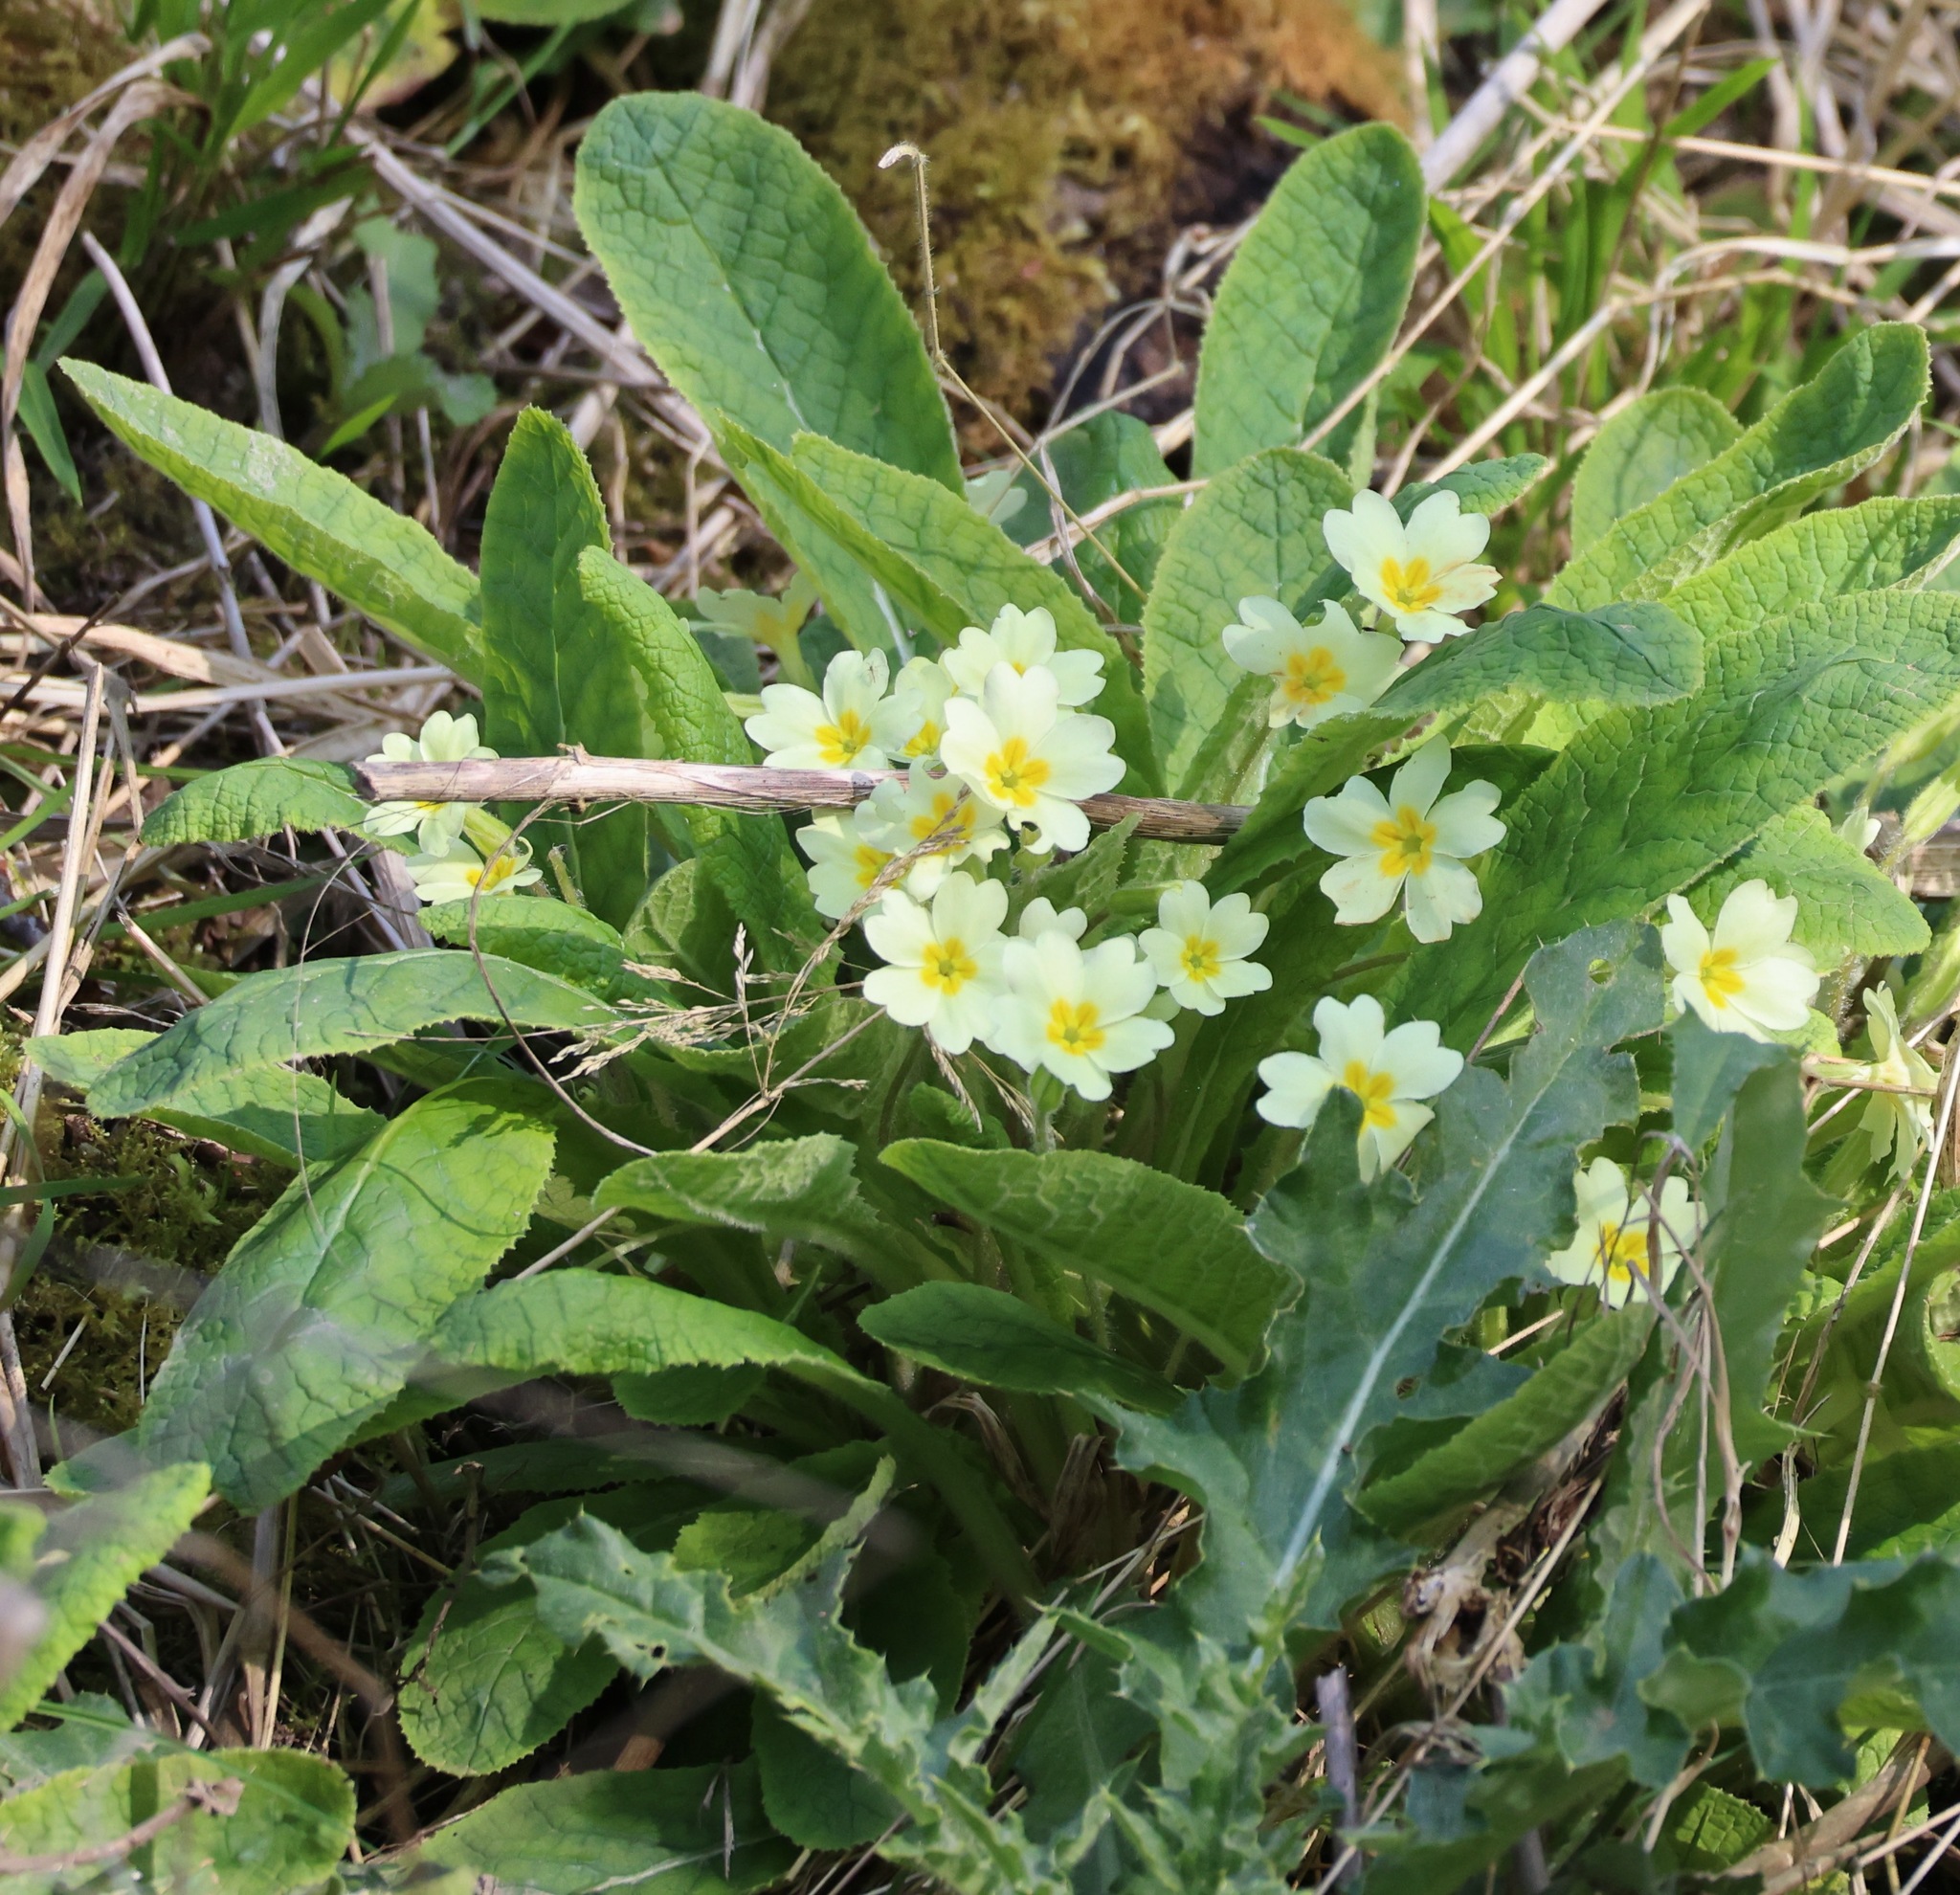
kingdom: Plantae
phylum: Tracheophyta
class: Magnoliopsida
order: Ericales
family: Primulaceae
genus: Primula
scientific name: Primula vulgaris
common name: Primrose
